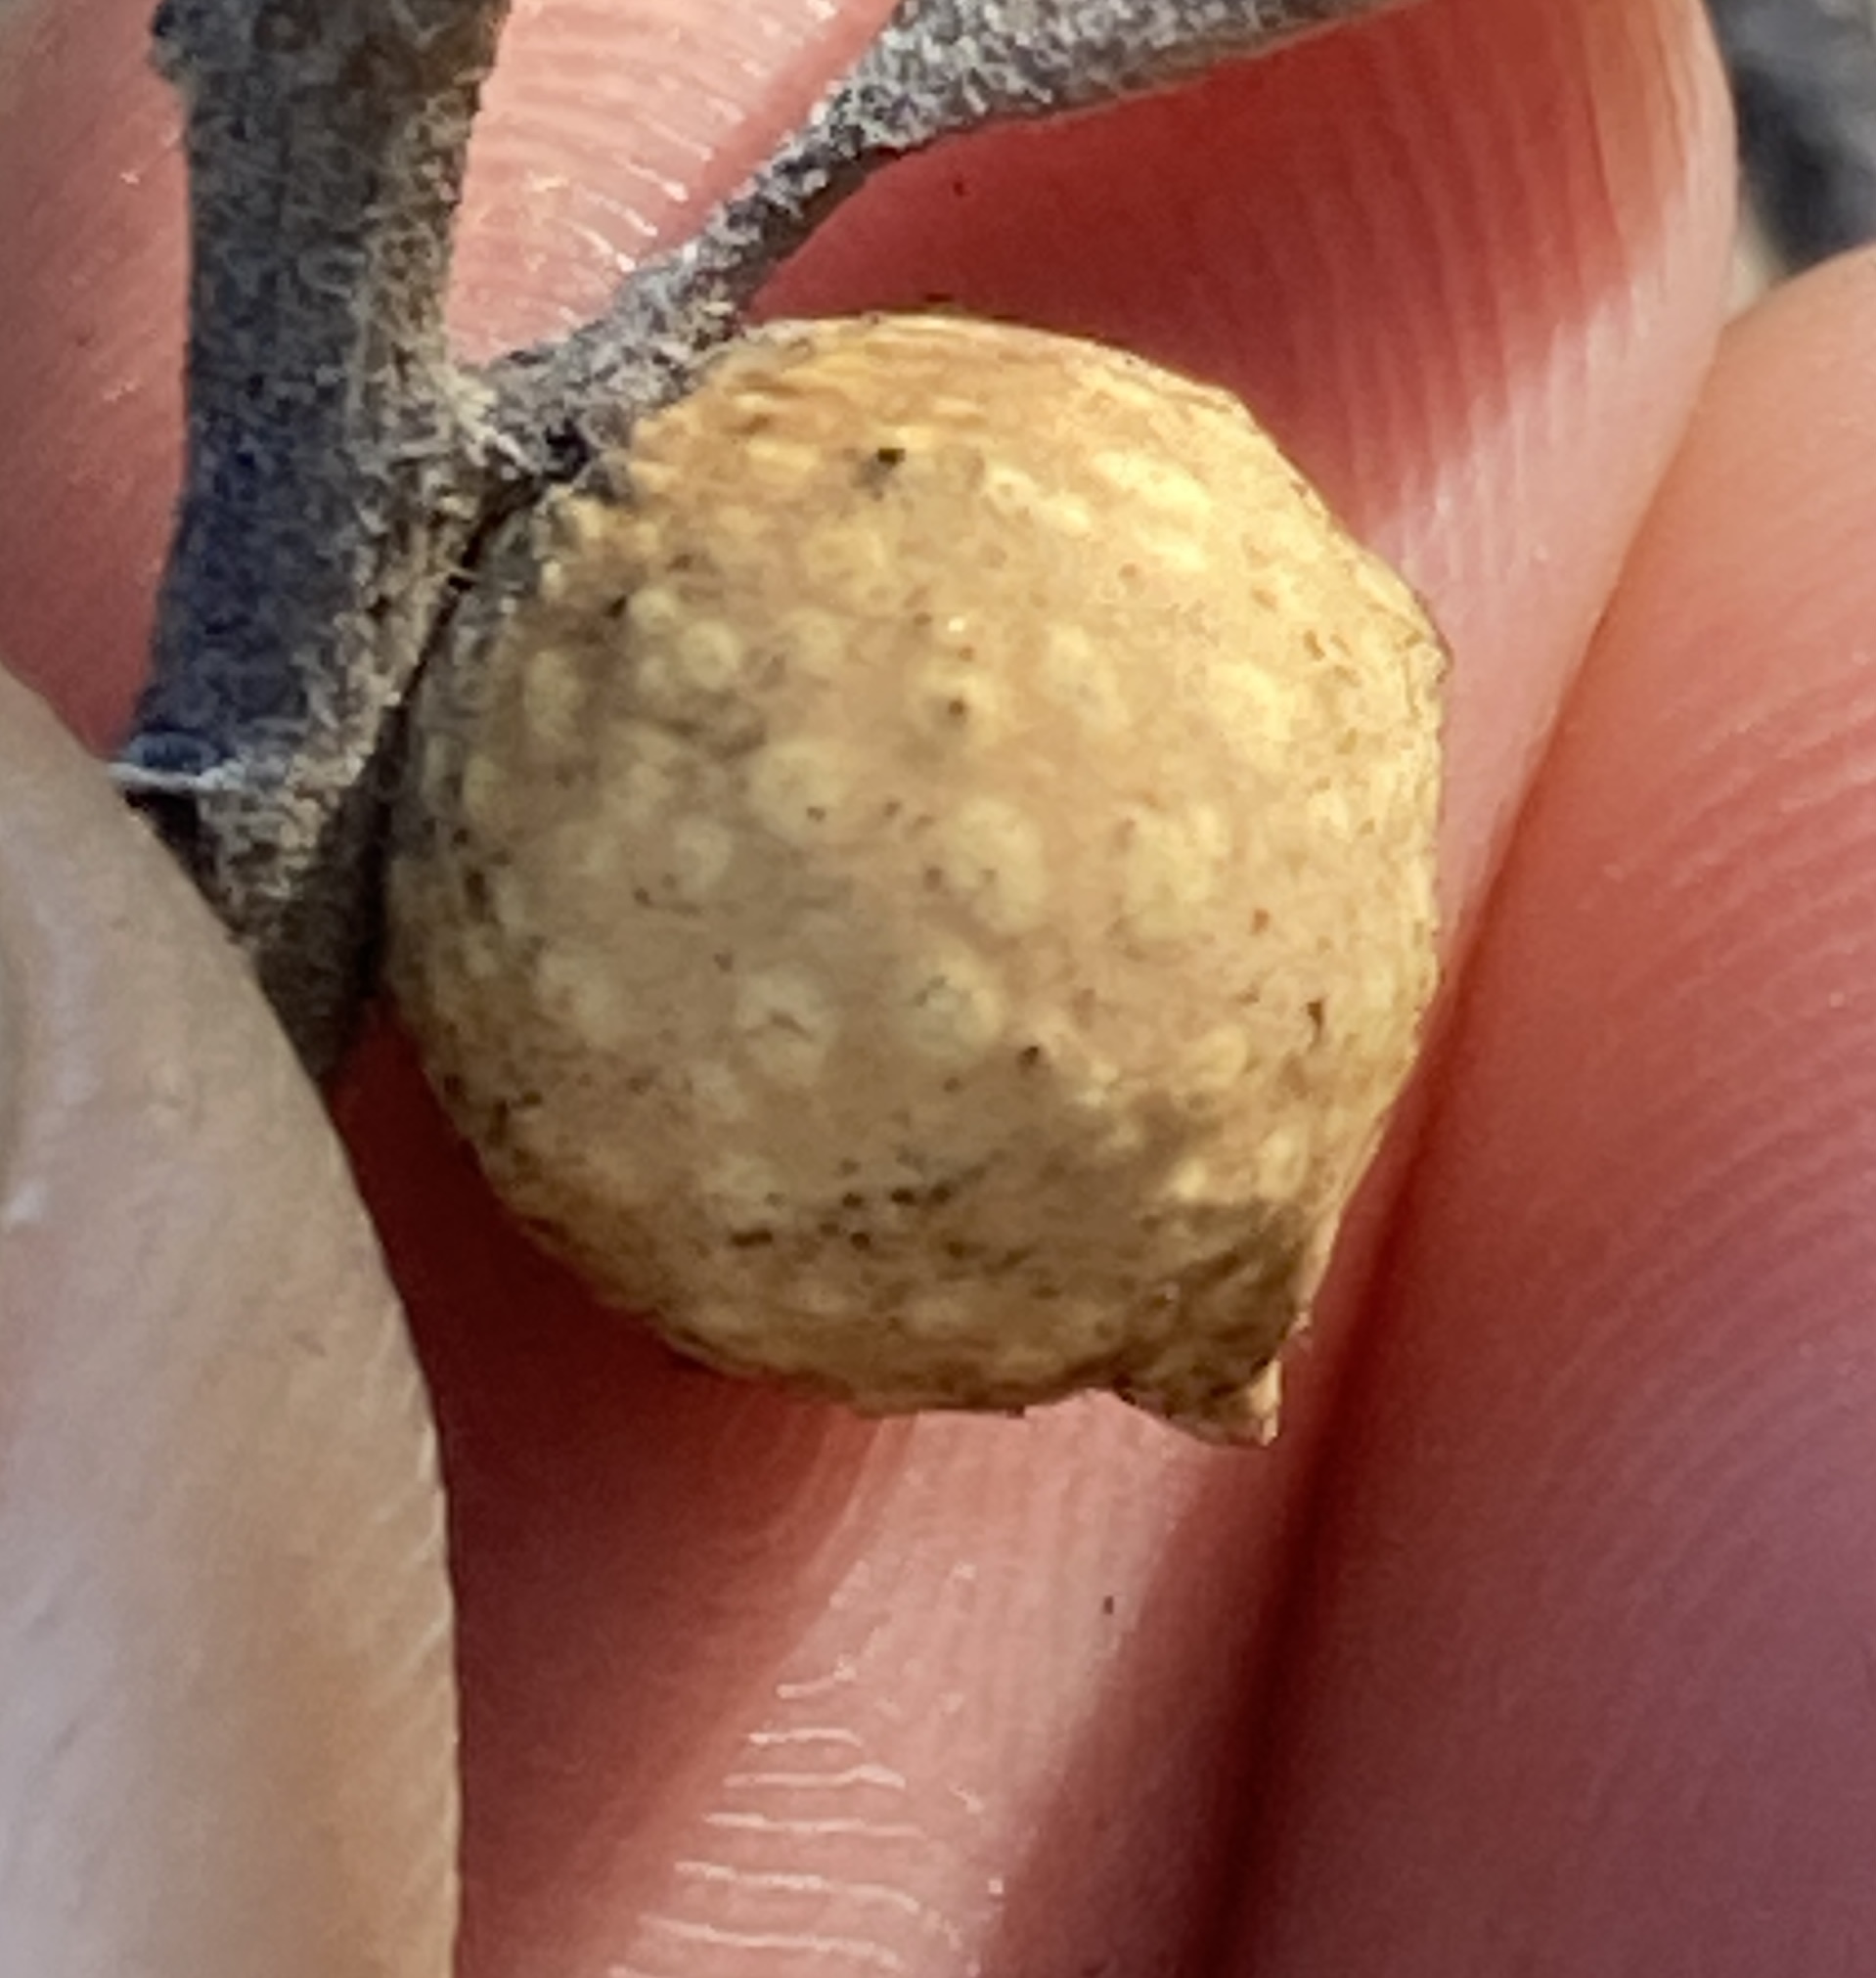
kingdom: Animalia
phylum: Arthropoda
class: Insecta
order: Hymenoptera
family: Cynipidae
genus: Burnettweldia
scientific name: Burnettweldia
